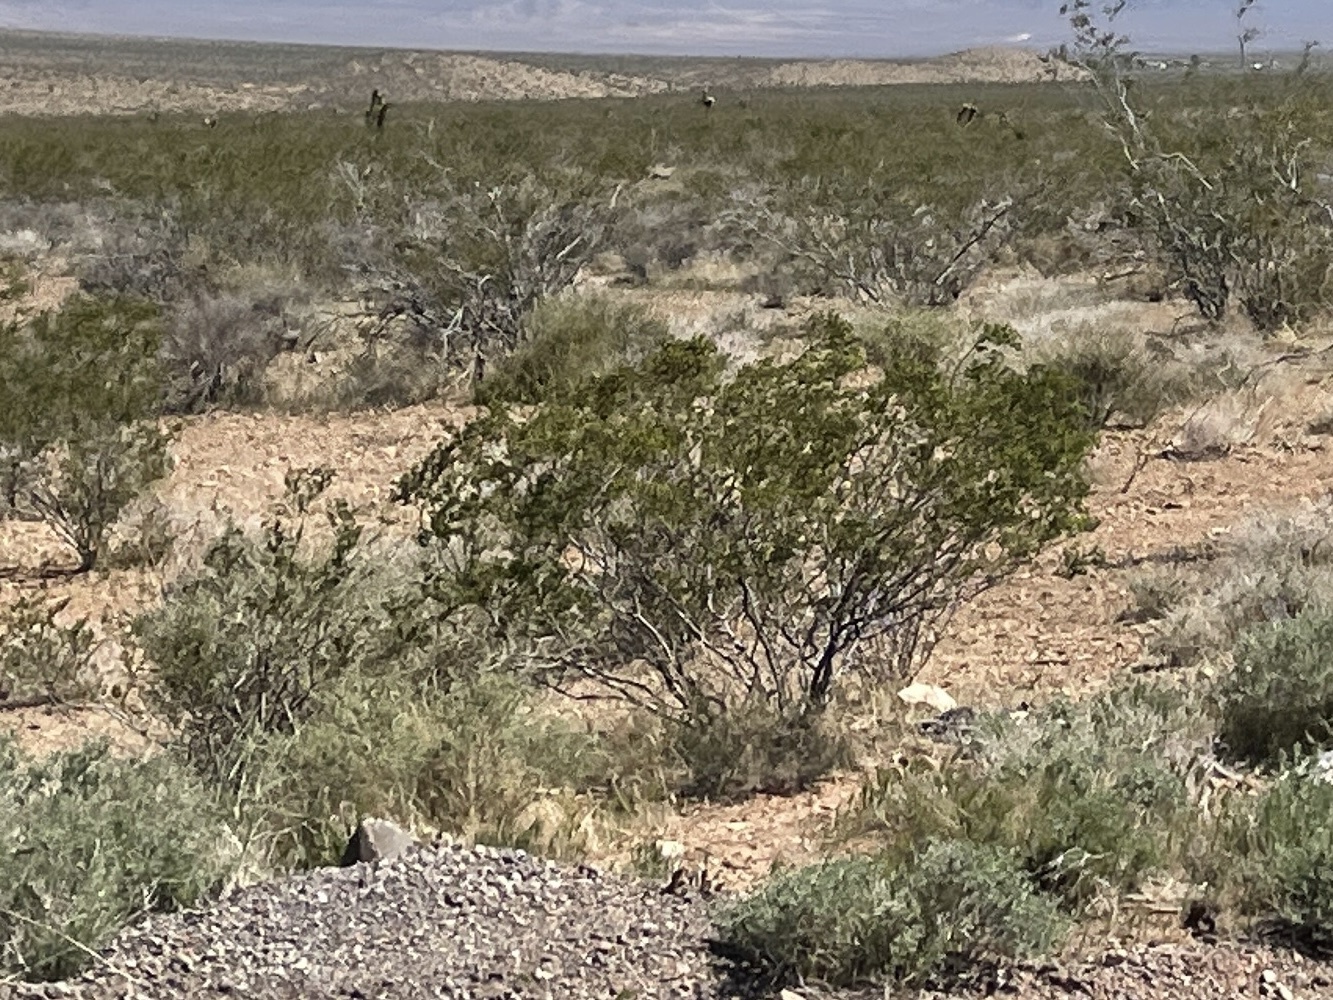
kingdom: Plantae
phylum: Tracheophyta
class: Magnoliopsida
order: Zygophyllales
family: Zygophyllaceae
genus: Larrea
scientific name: Larrea tridentata
